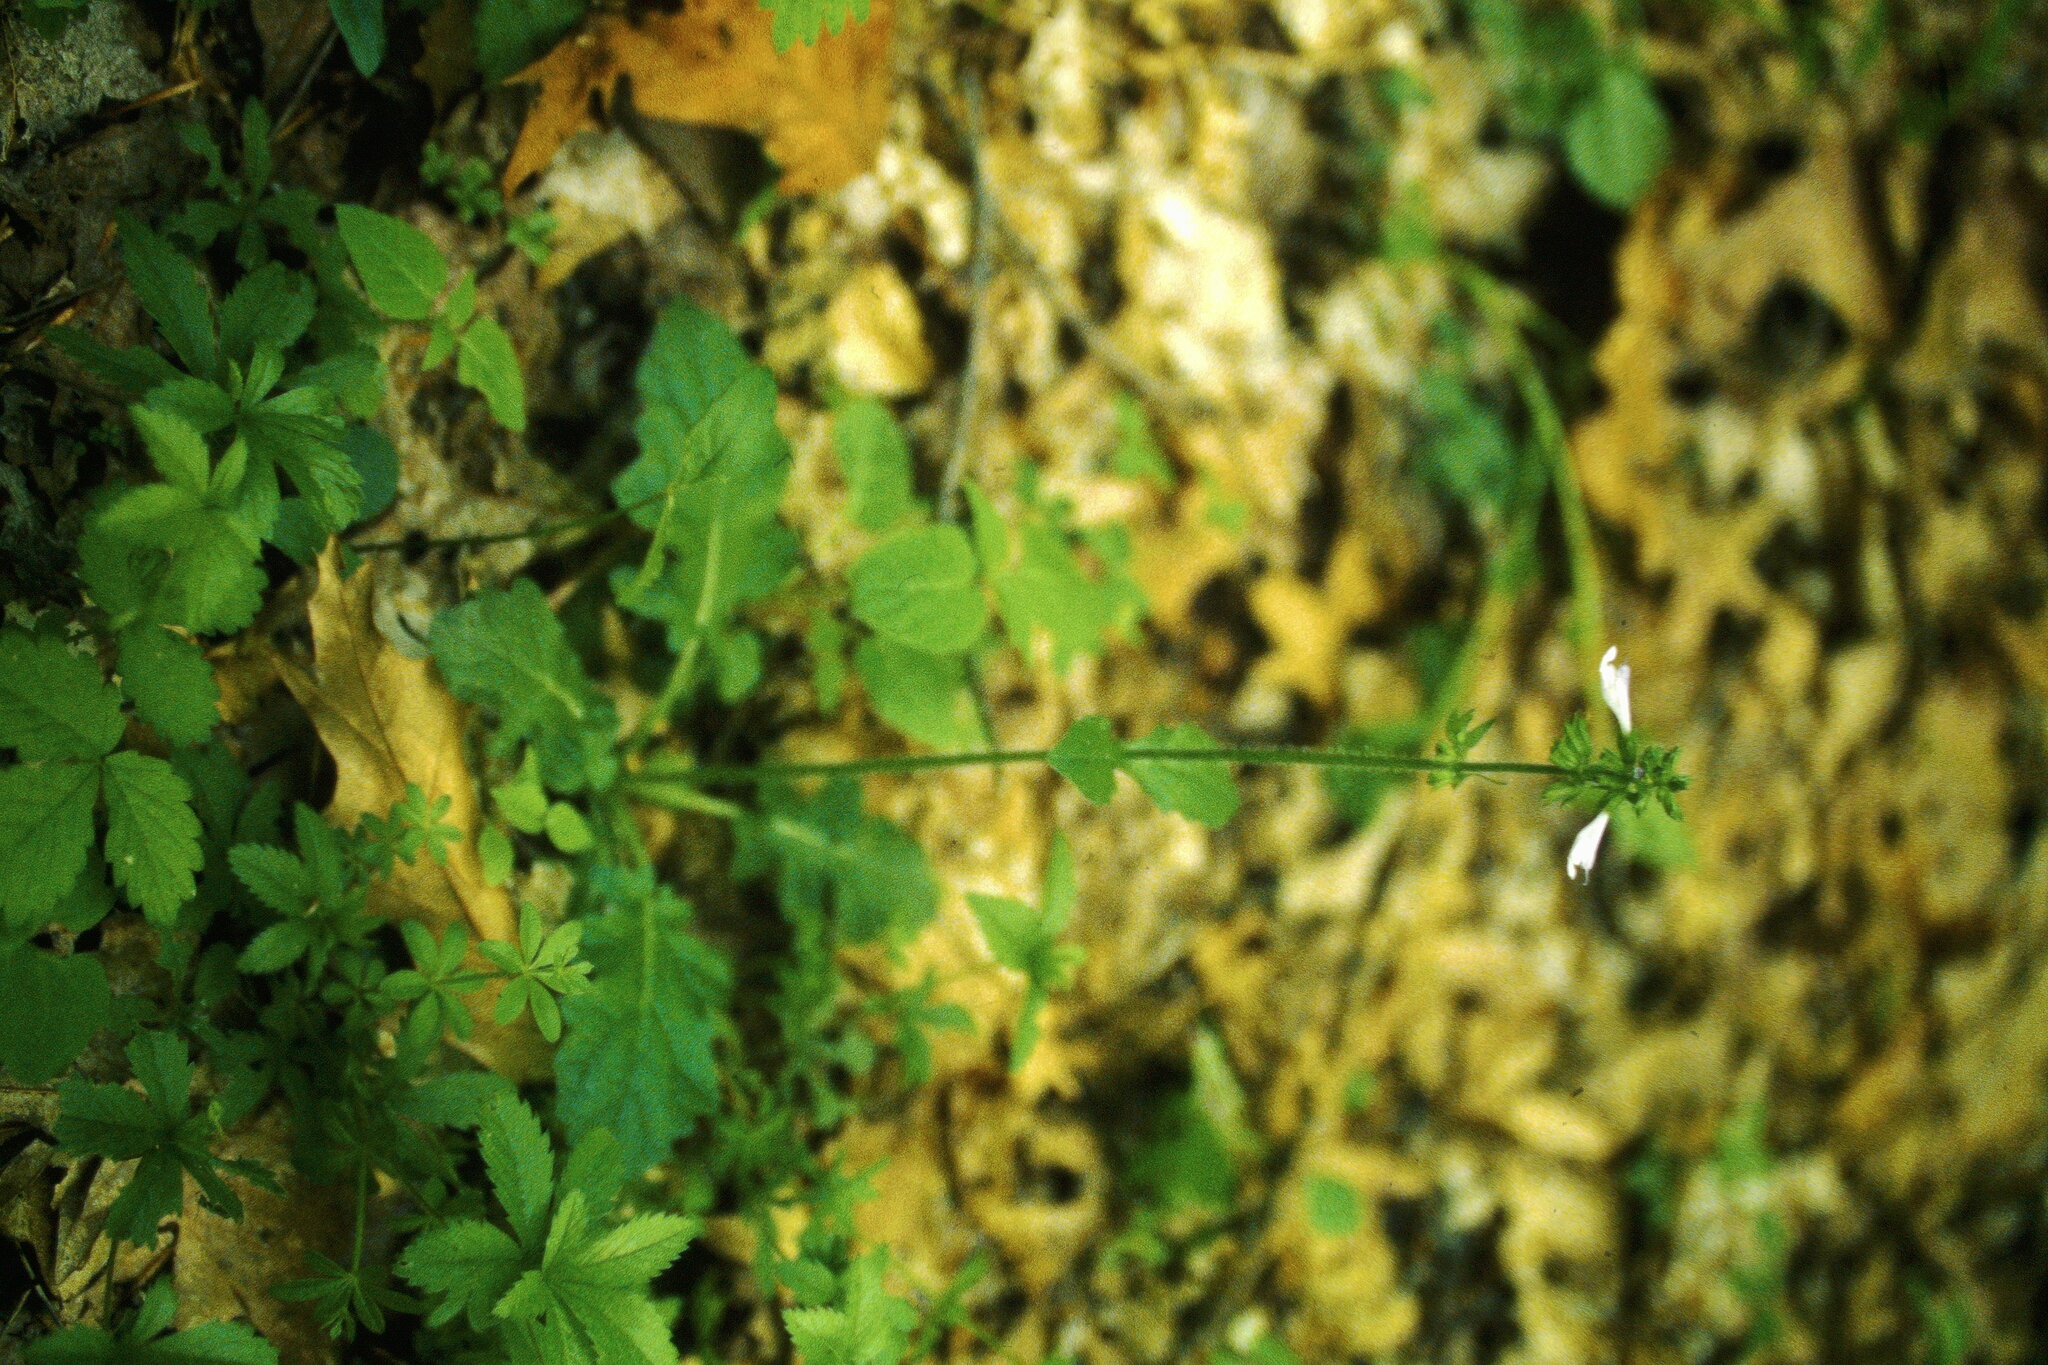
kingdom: Plantae
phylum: Tracheophyta
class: Magnoliopsida
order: Lamiales
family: Lamiaceae
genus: Salvia
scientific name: Salvia lyrata
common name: Cancerweed
